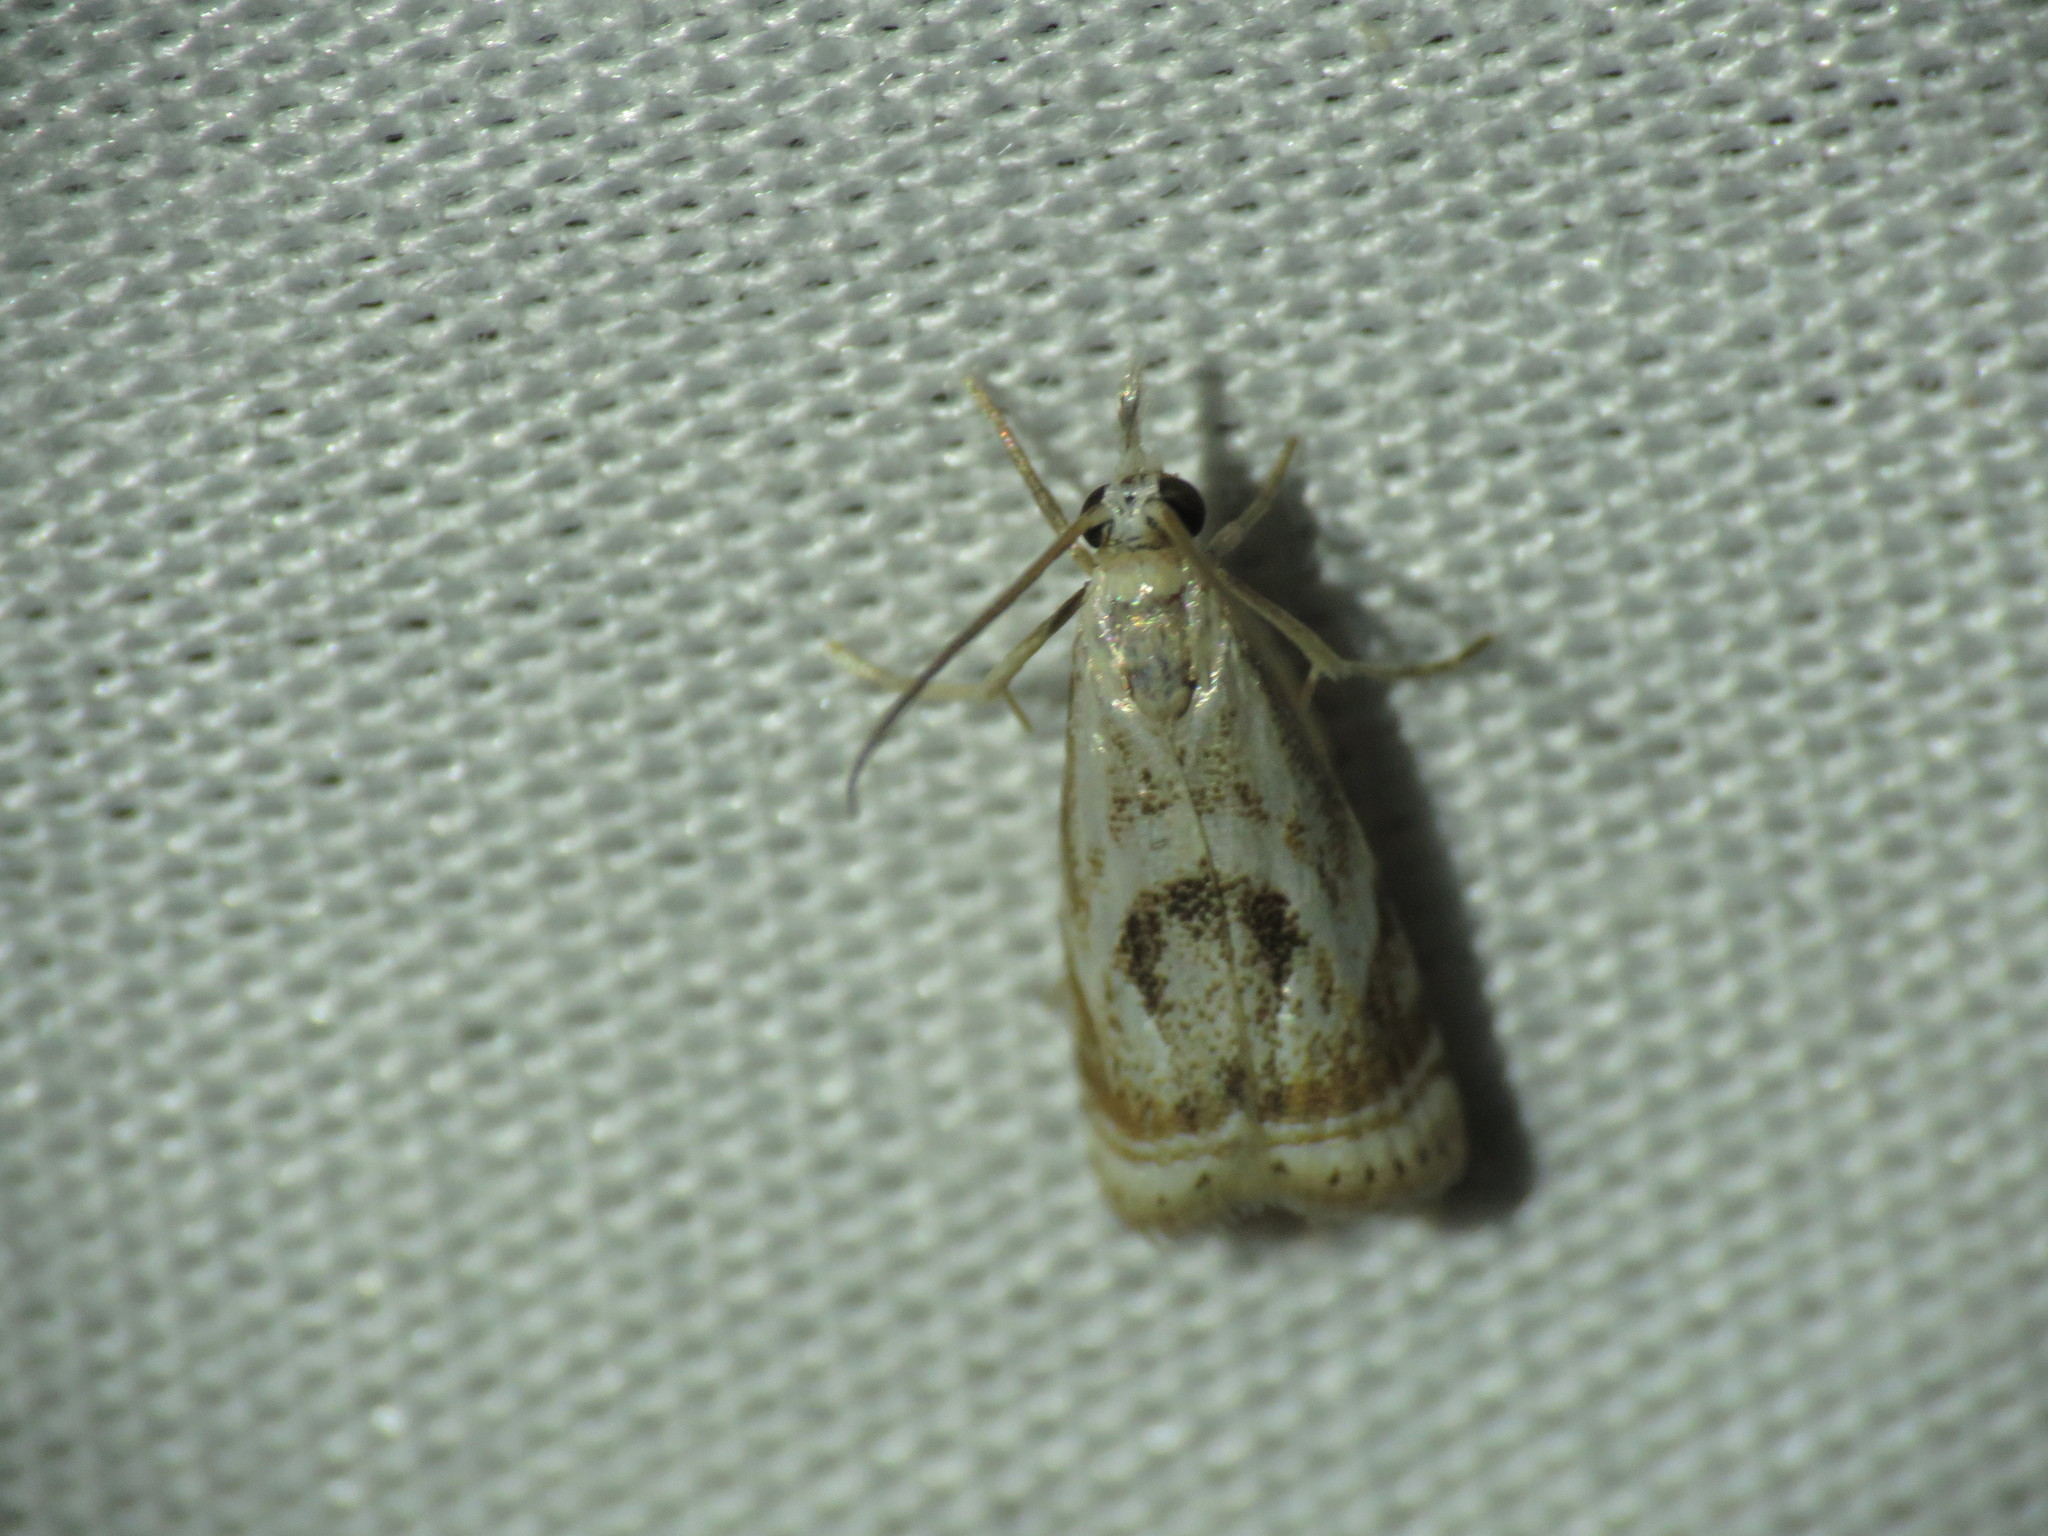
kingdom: Animalia
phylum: Arthropoda
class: Insecta
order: Lepidoptera
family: Crambidae
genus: Microcrambus
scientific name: Microcrambus elegans
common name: Elegant grass-veneer
